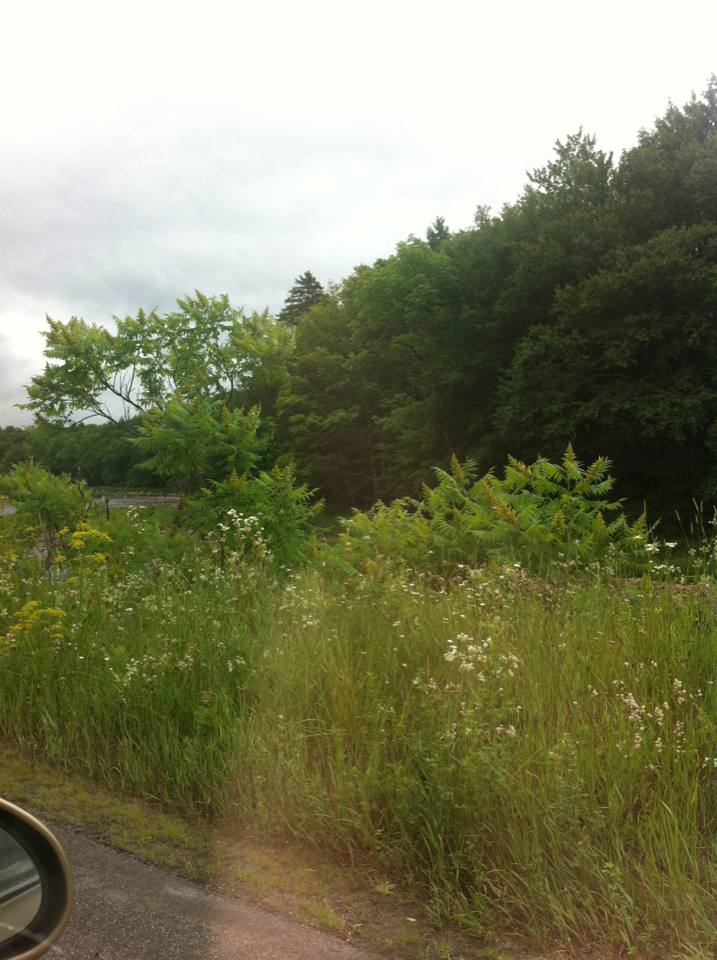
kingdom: Plantae
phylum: Tracheophyta
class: Magnoliopsida
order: Sapindales
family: Anacardiaceae
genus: Rhus
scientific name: Rhus typhina
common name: Staghorn sumac
